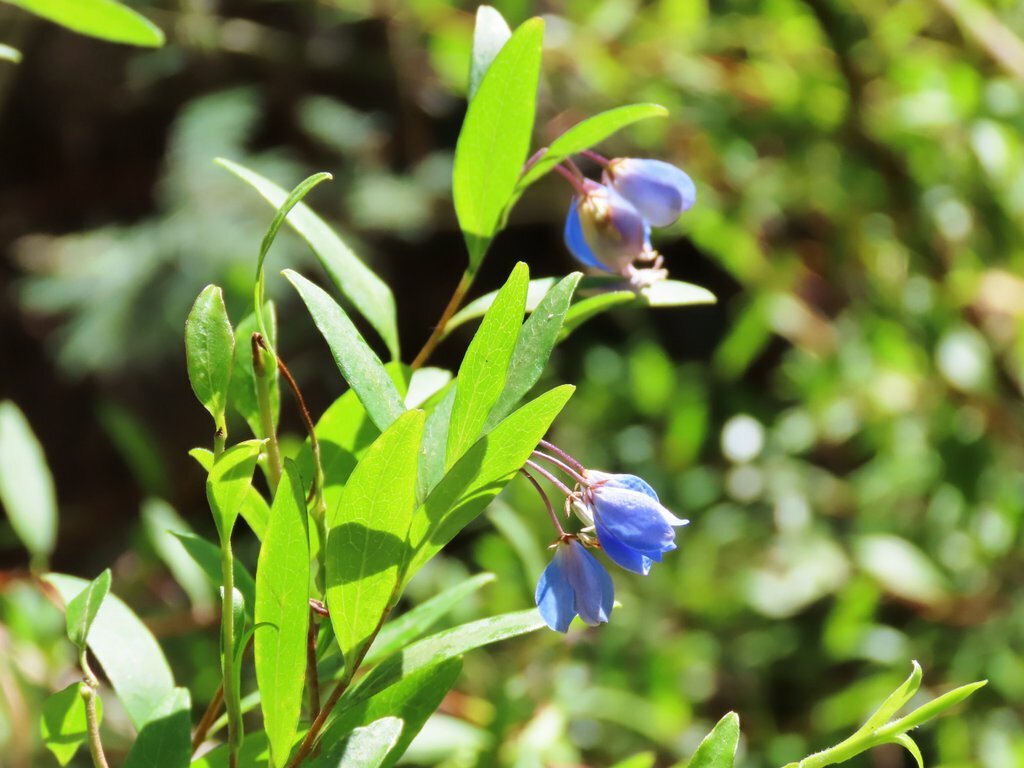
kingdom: Plantae
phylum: Tracheophyta
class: Magnoliopsida
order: Apiales
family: Pittosporaceae
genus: Billardiera
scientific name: Billardiera fusiformis
